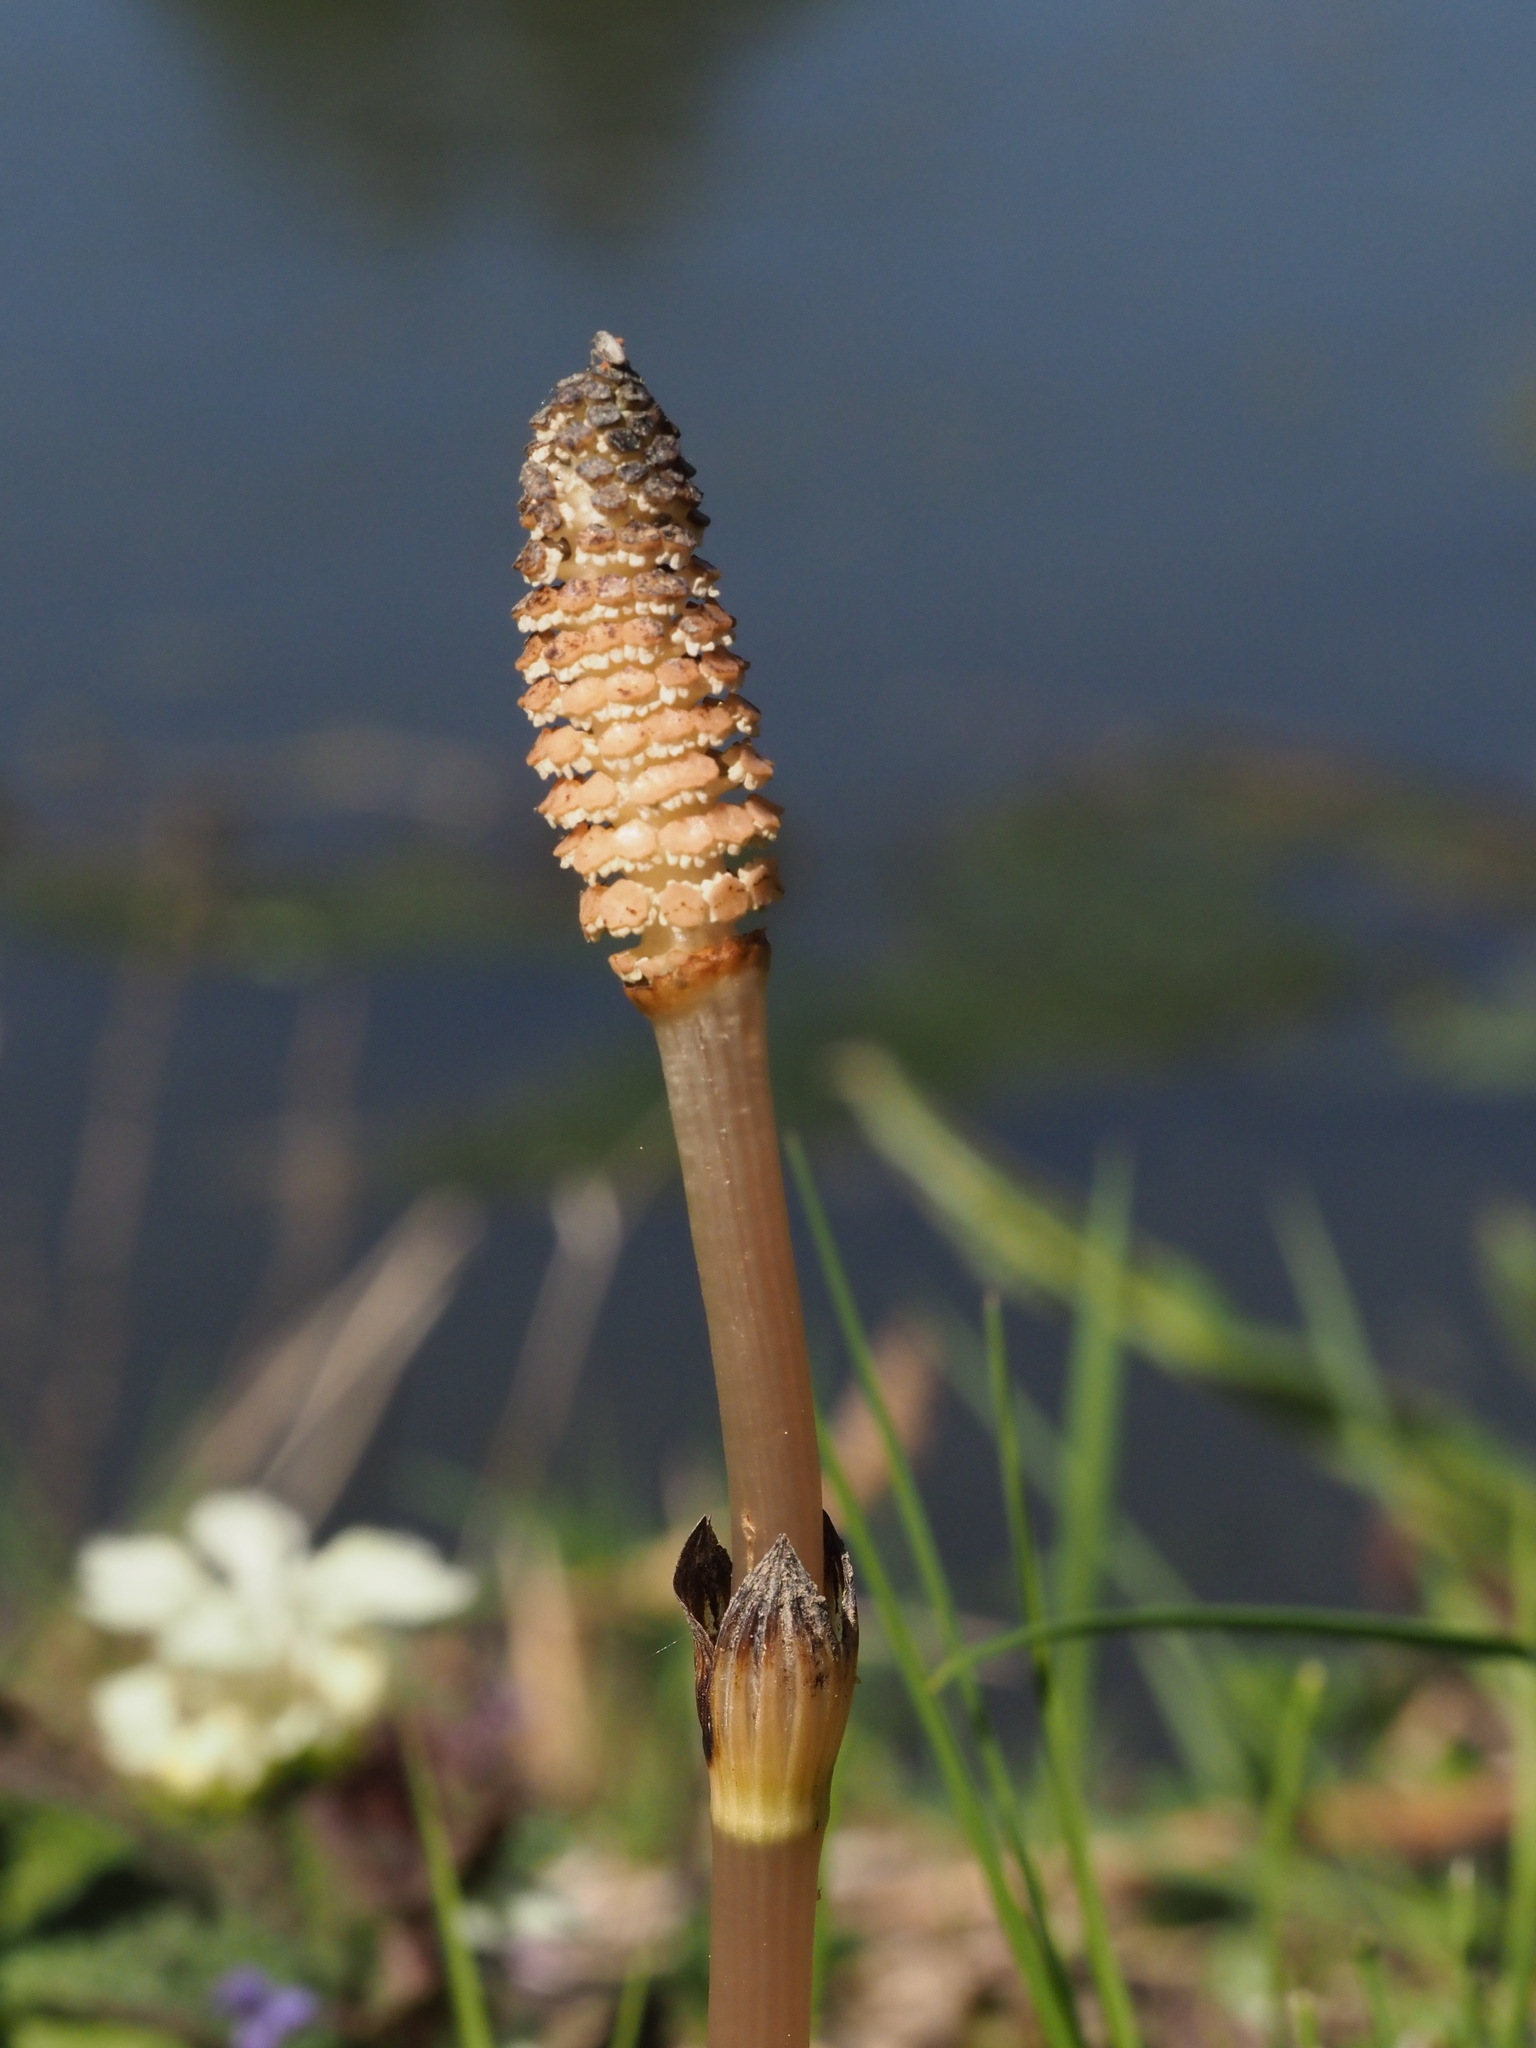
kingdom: Plantae
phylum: Tracheophyta
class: Polypodiopsida
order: Equisetales
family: Equisetaceae
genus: Equisetum
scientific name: Equisetum arvense
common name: Field horsetail
